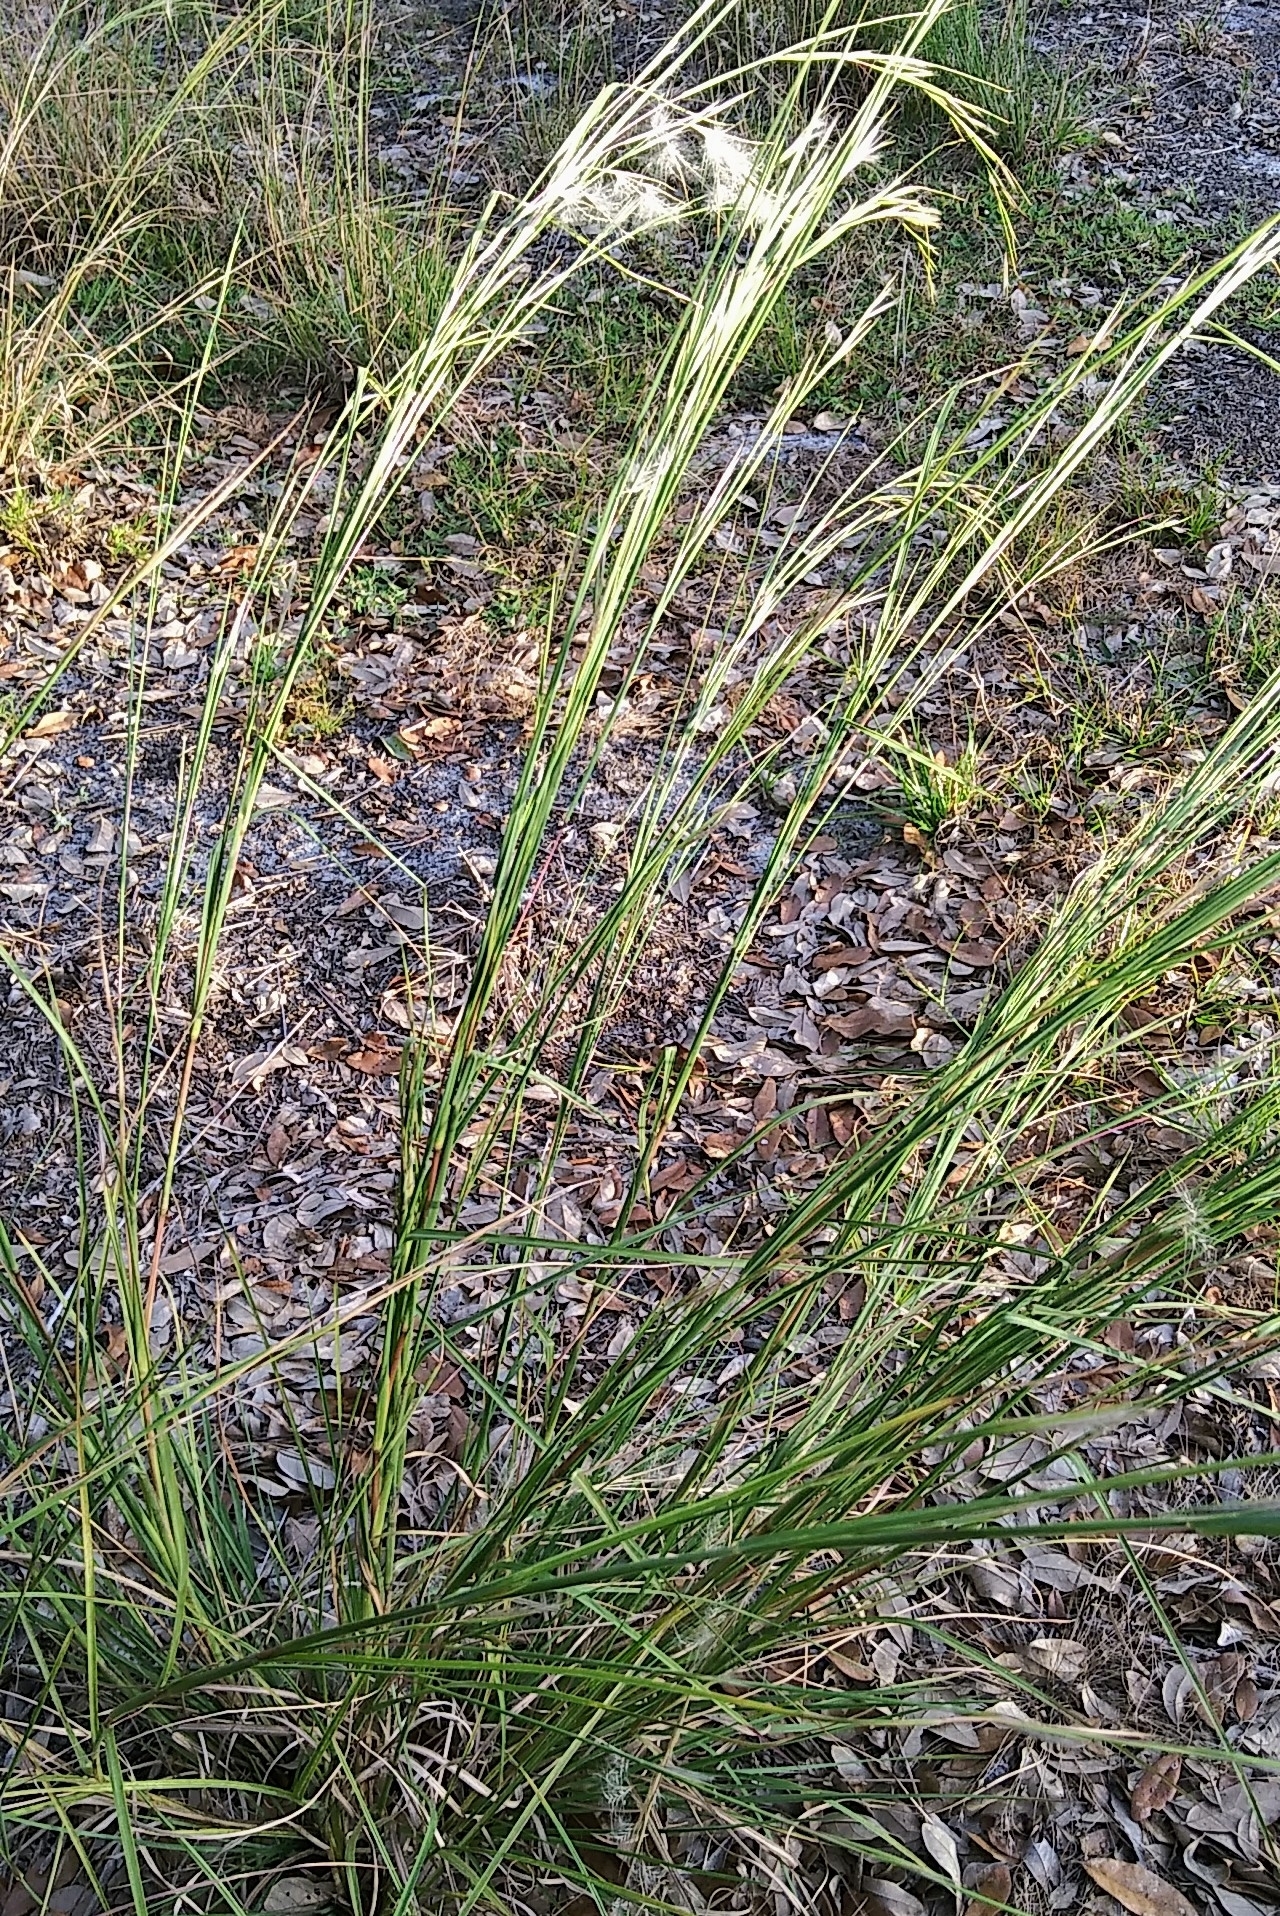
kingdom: Plantae
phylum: Tracheophyta
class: Liliopsida
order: Poales
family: Poaceae
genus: Andropogon
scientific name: Andropogon virginicus
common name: Broomsedge bluestem
